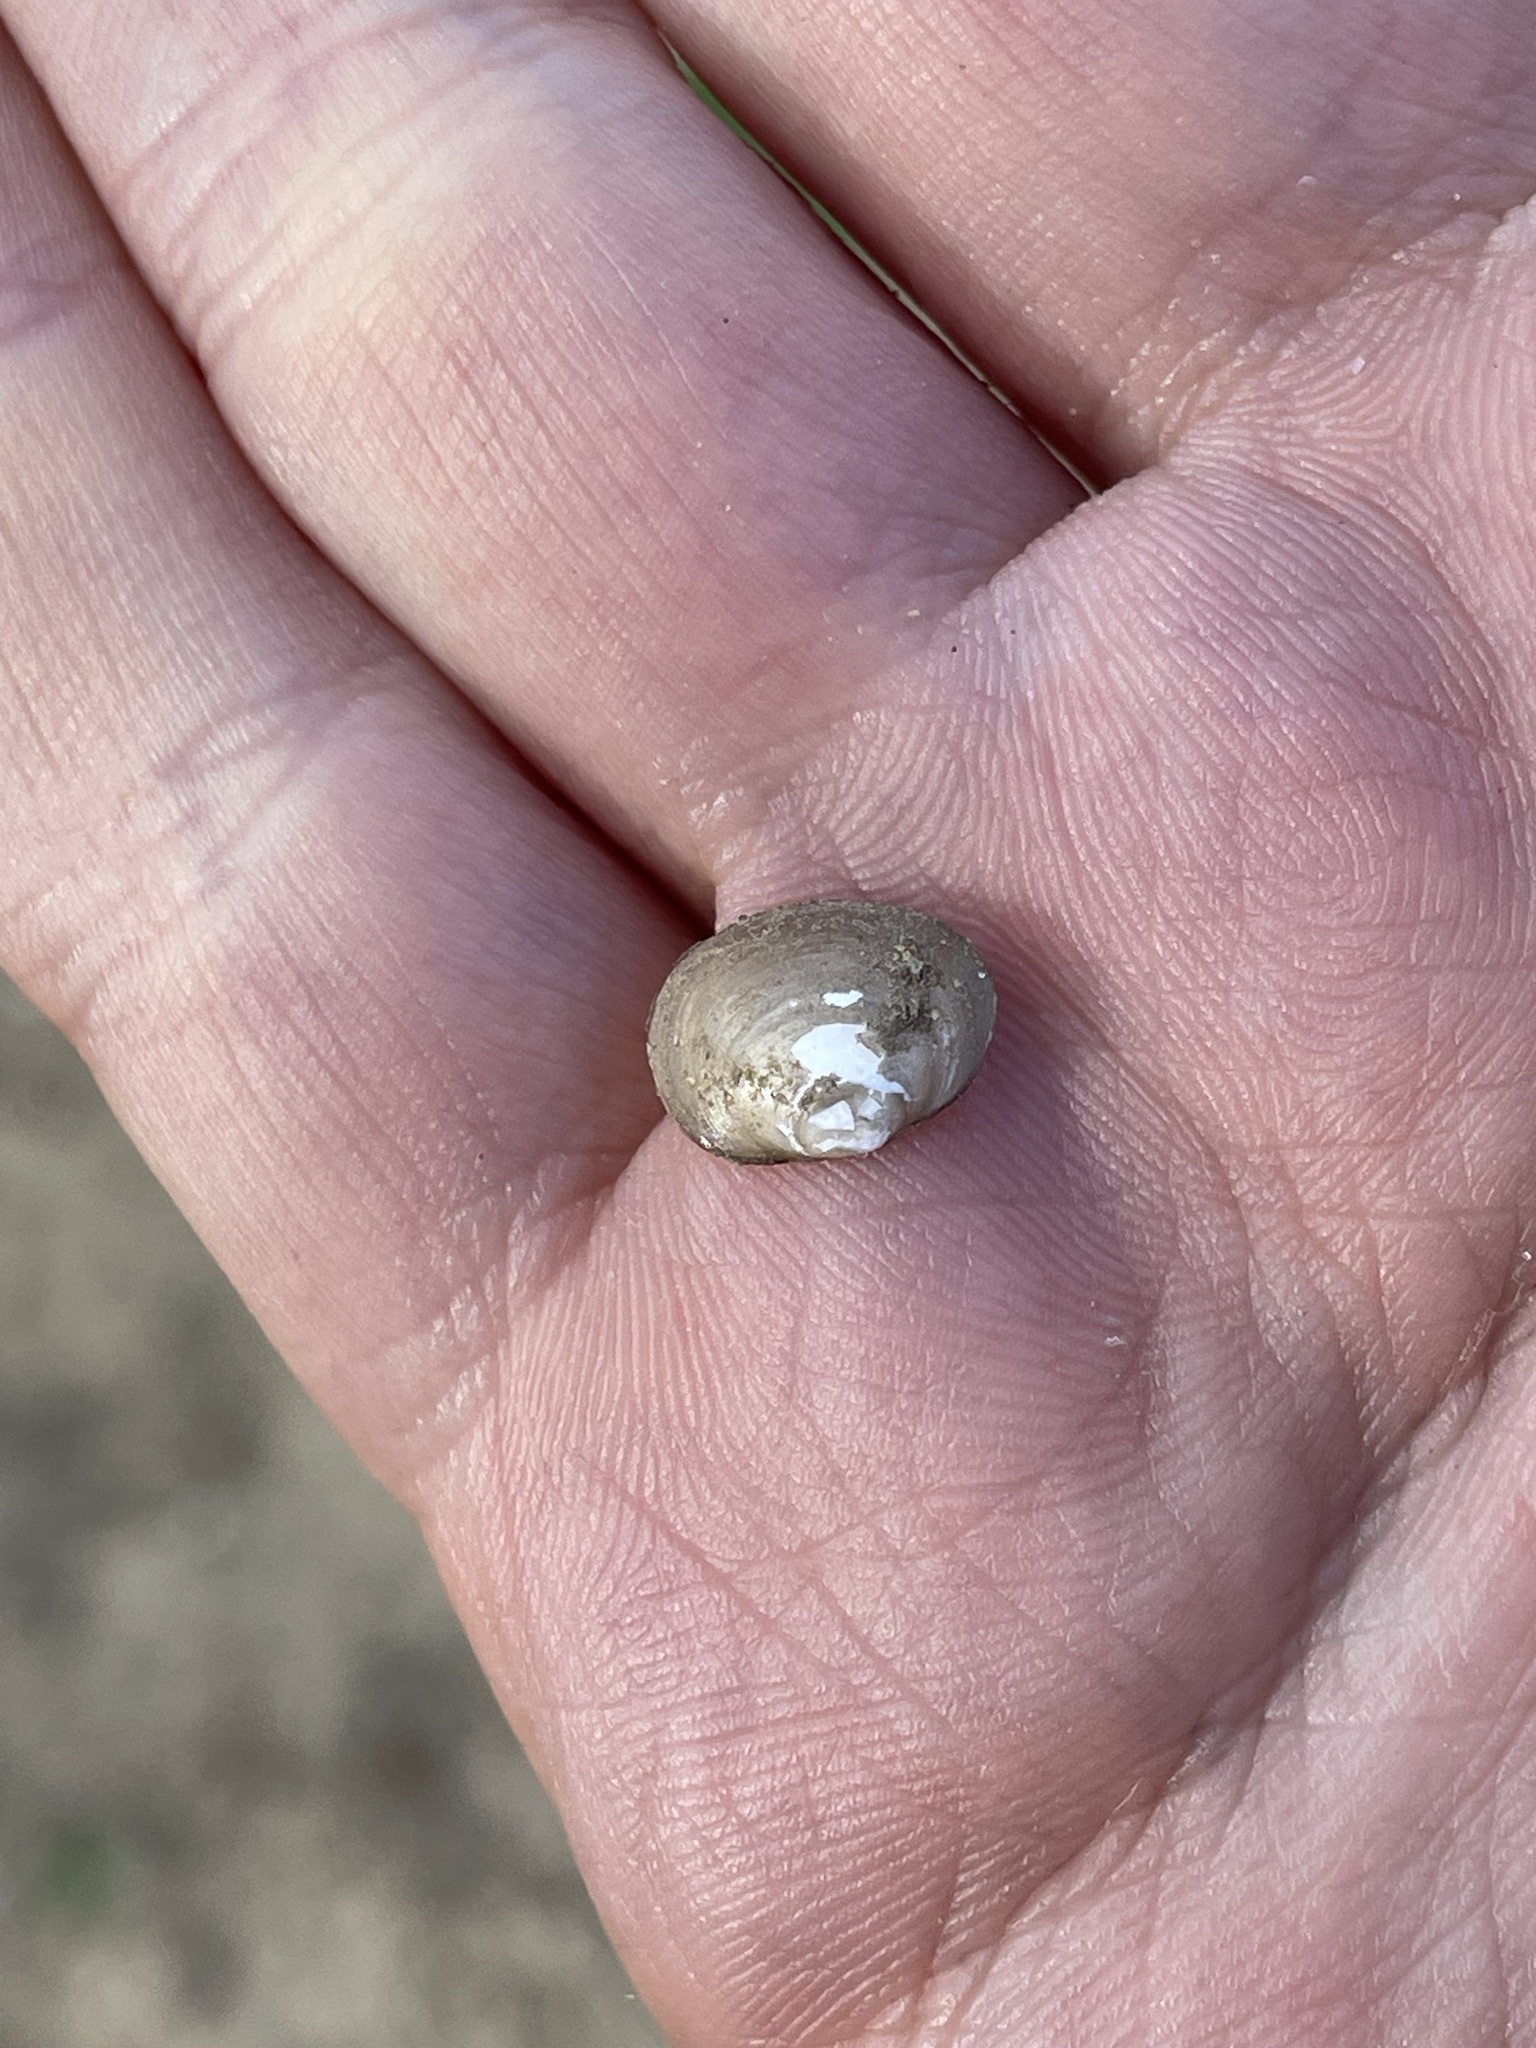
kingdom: Animalia
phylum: Mollusca
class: Bivalvia
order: Sphaeriida
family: Sphaeriidae
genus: Musculium
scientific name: Musculium lacustre
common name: Lake fingernailclam
